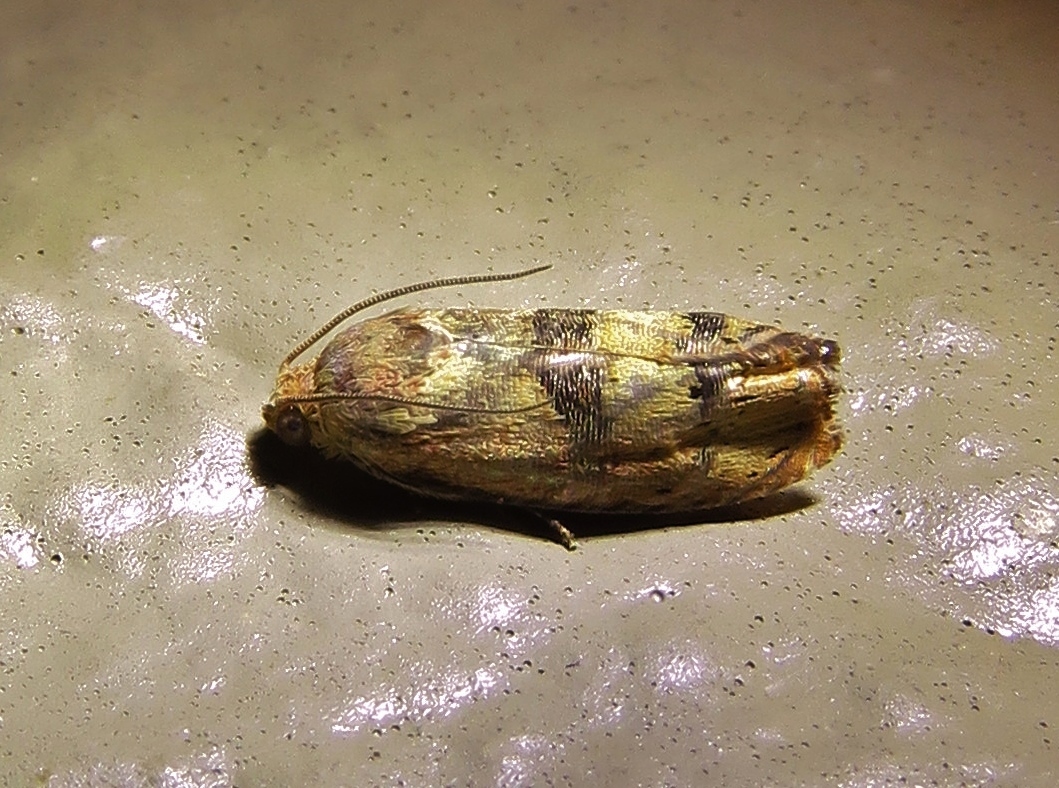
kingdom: Animalia
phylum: Arthropoda
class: Insecta
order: Lepidoptera
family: Tortricidae
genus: Cydia
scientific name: Cydia latiferreana
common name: Filbertworm moth
